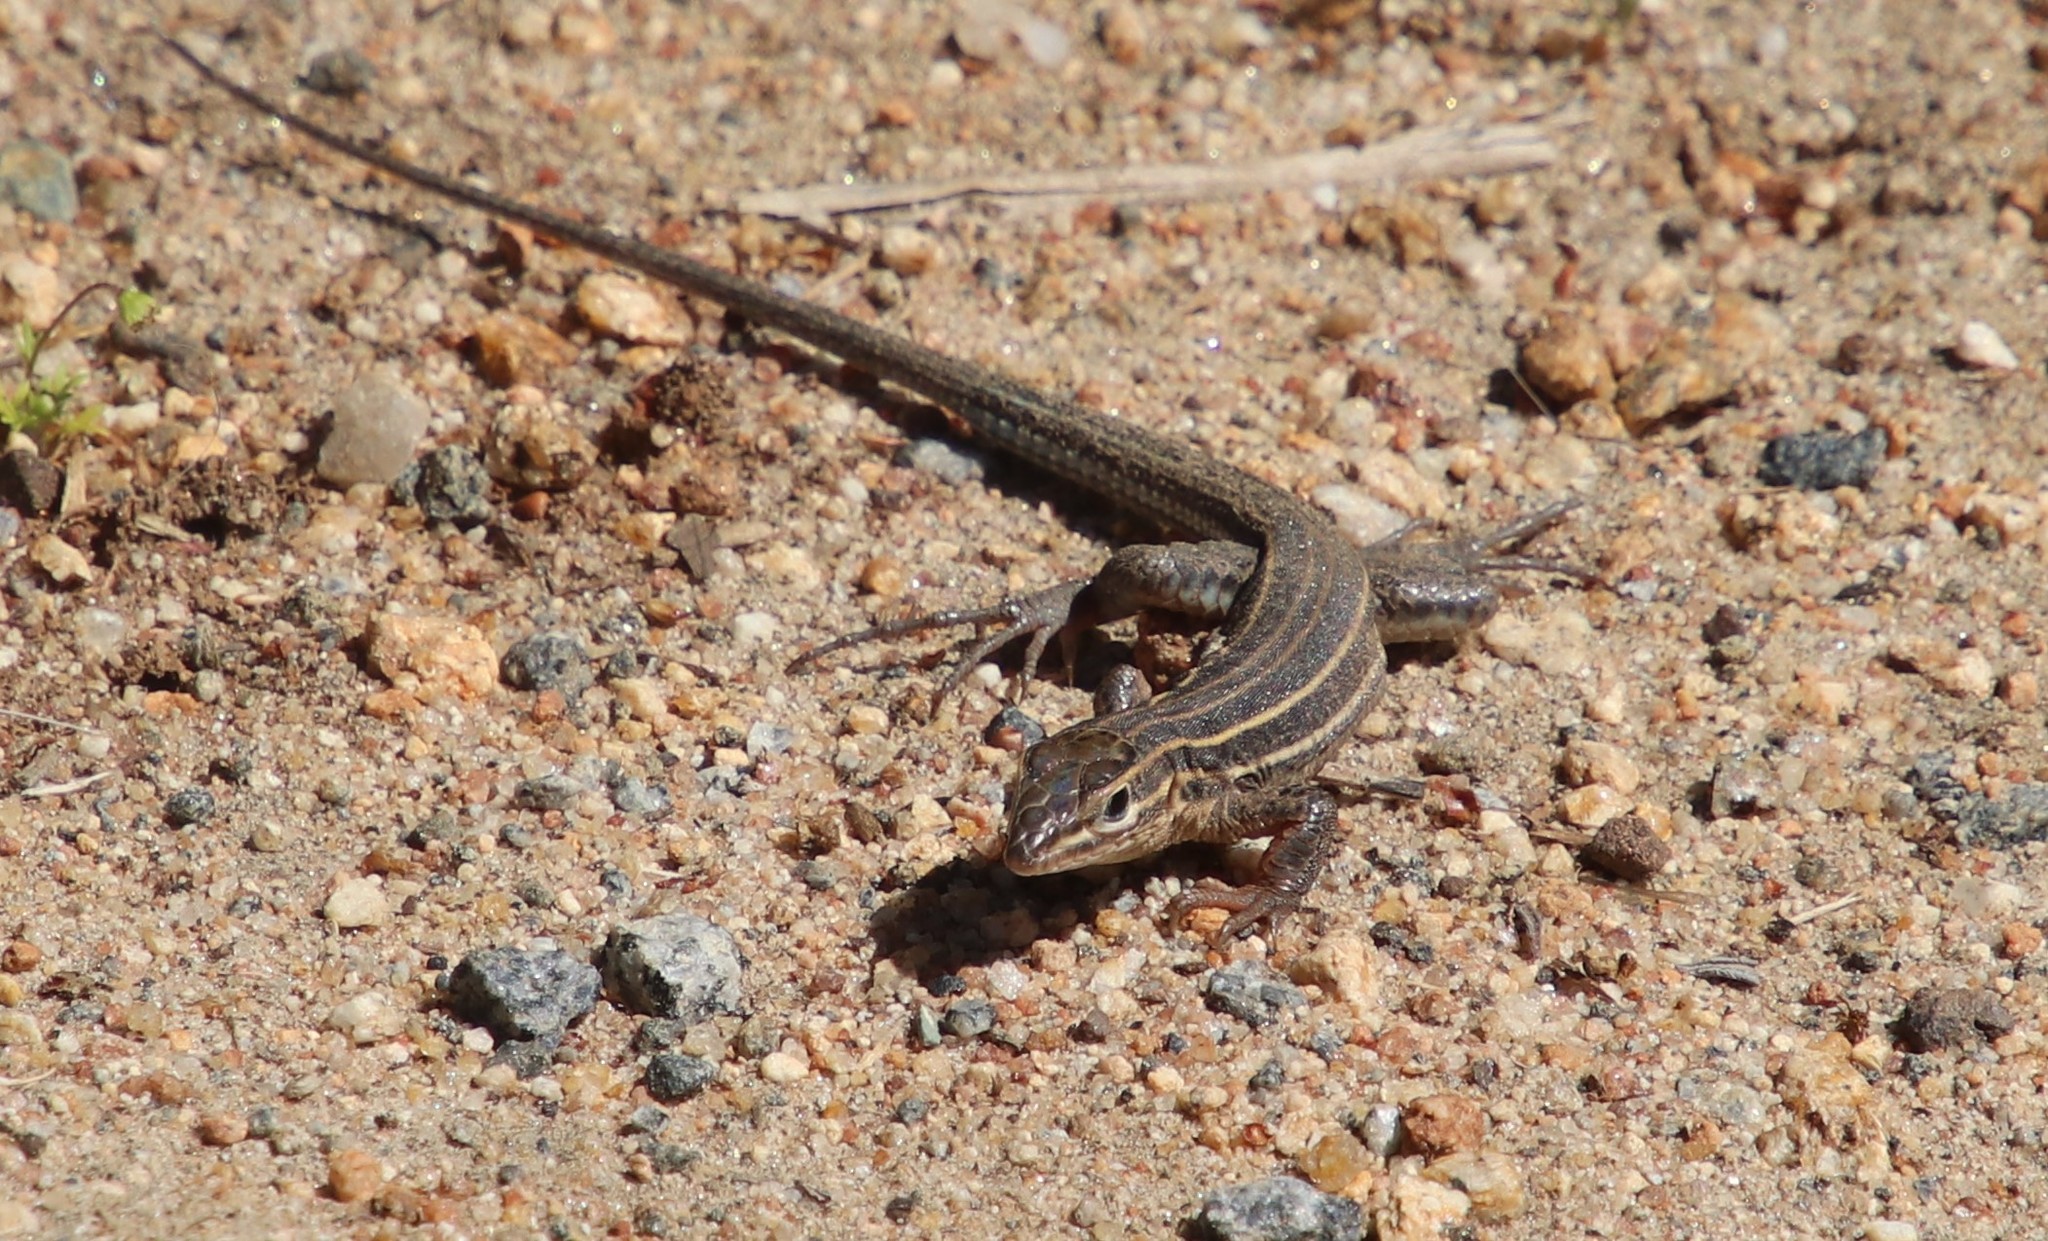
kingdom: Animalia
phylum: Chordata
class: Squamata
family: Teiidae
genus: Aspidoscelis
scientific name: Aspidoscelis hyperythrus
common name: Orange-throated race-runner
